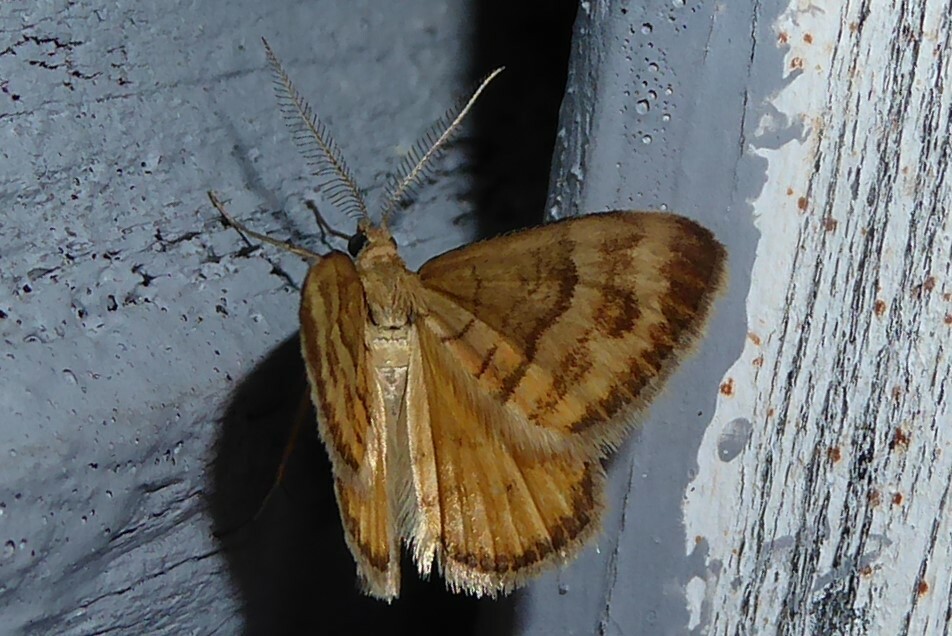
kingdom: Animalia
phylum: Arthropoda
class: Insecta
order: Lepidoptera
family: Geometridae
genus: Asaphodes
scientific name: Asaphodes abrogata
